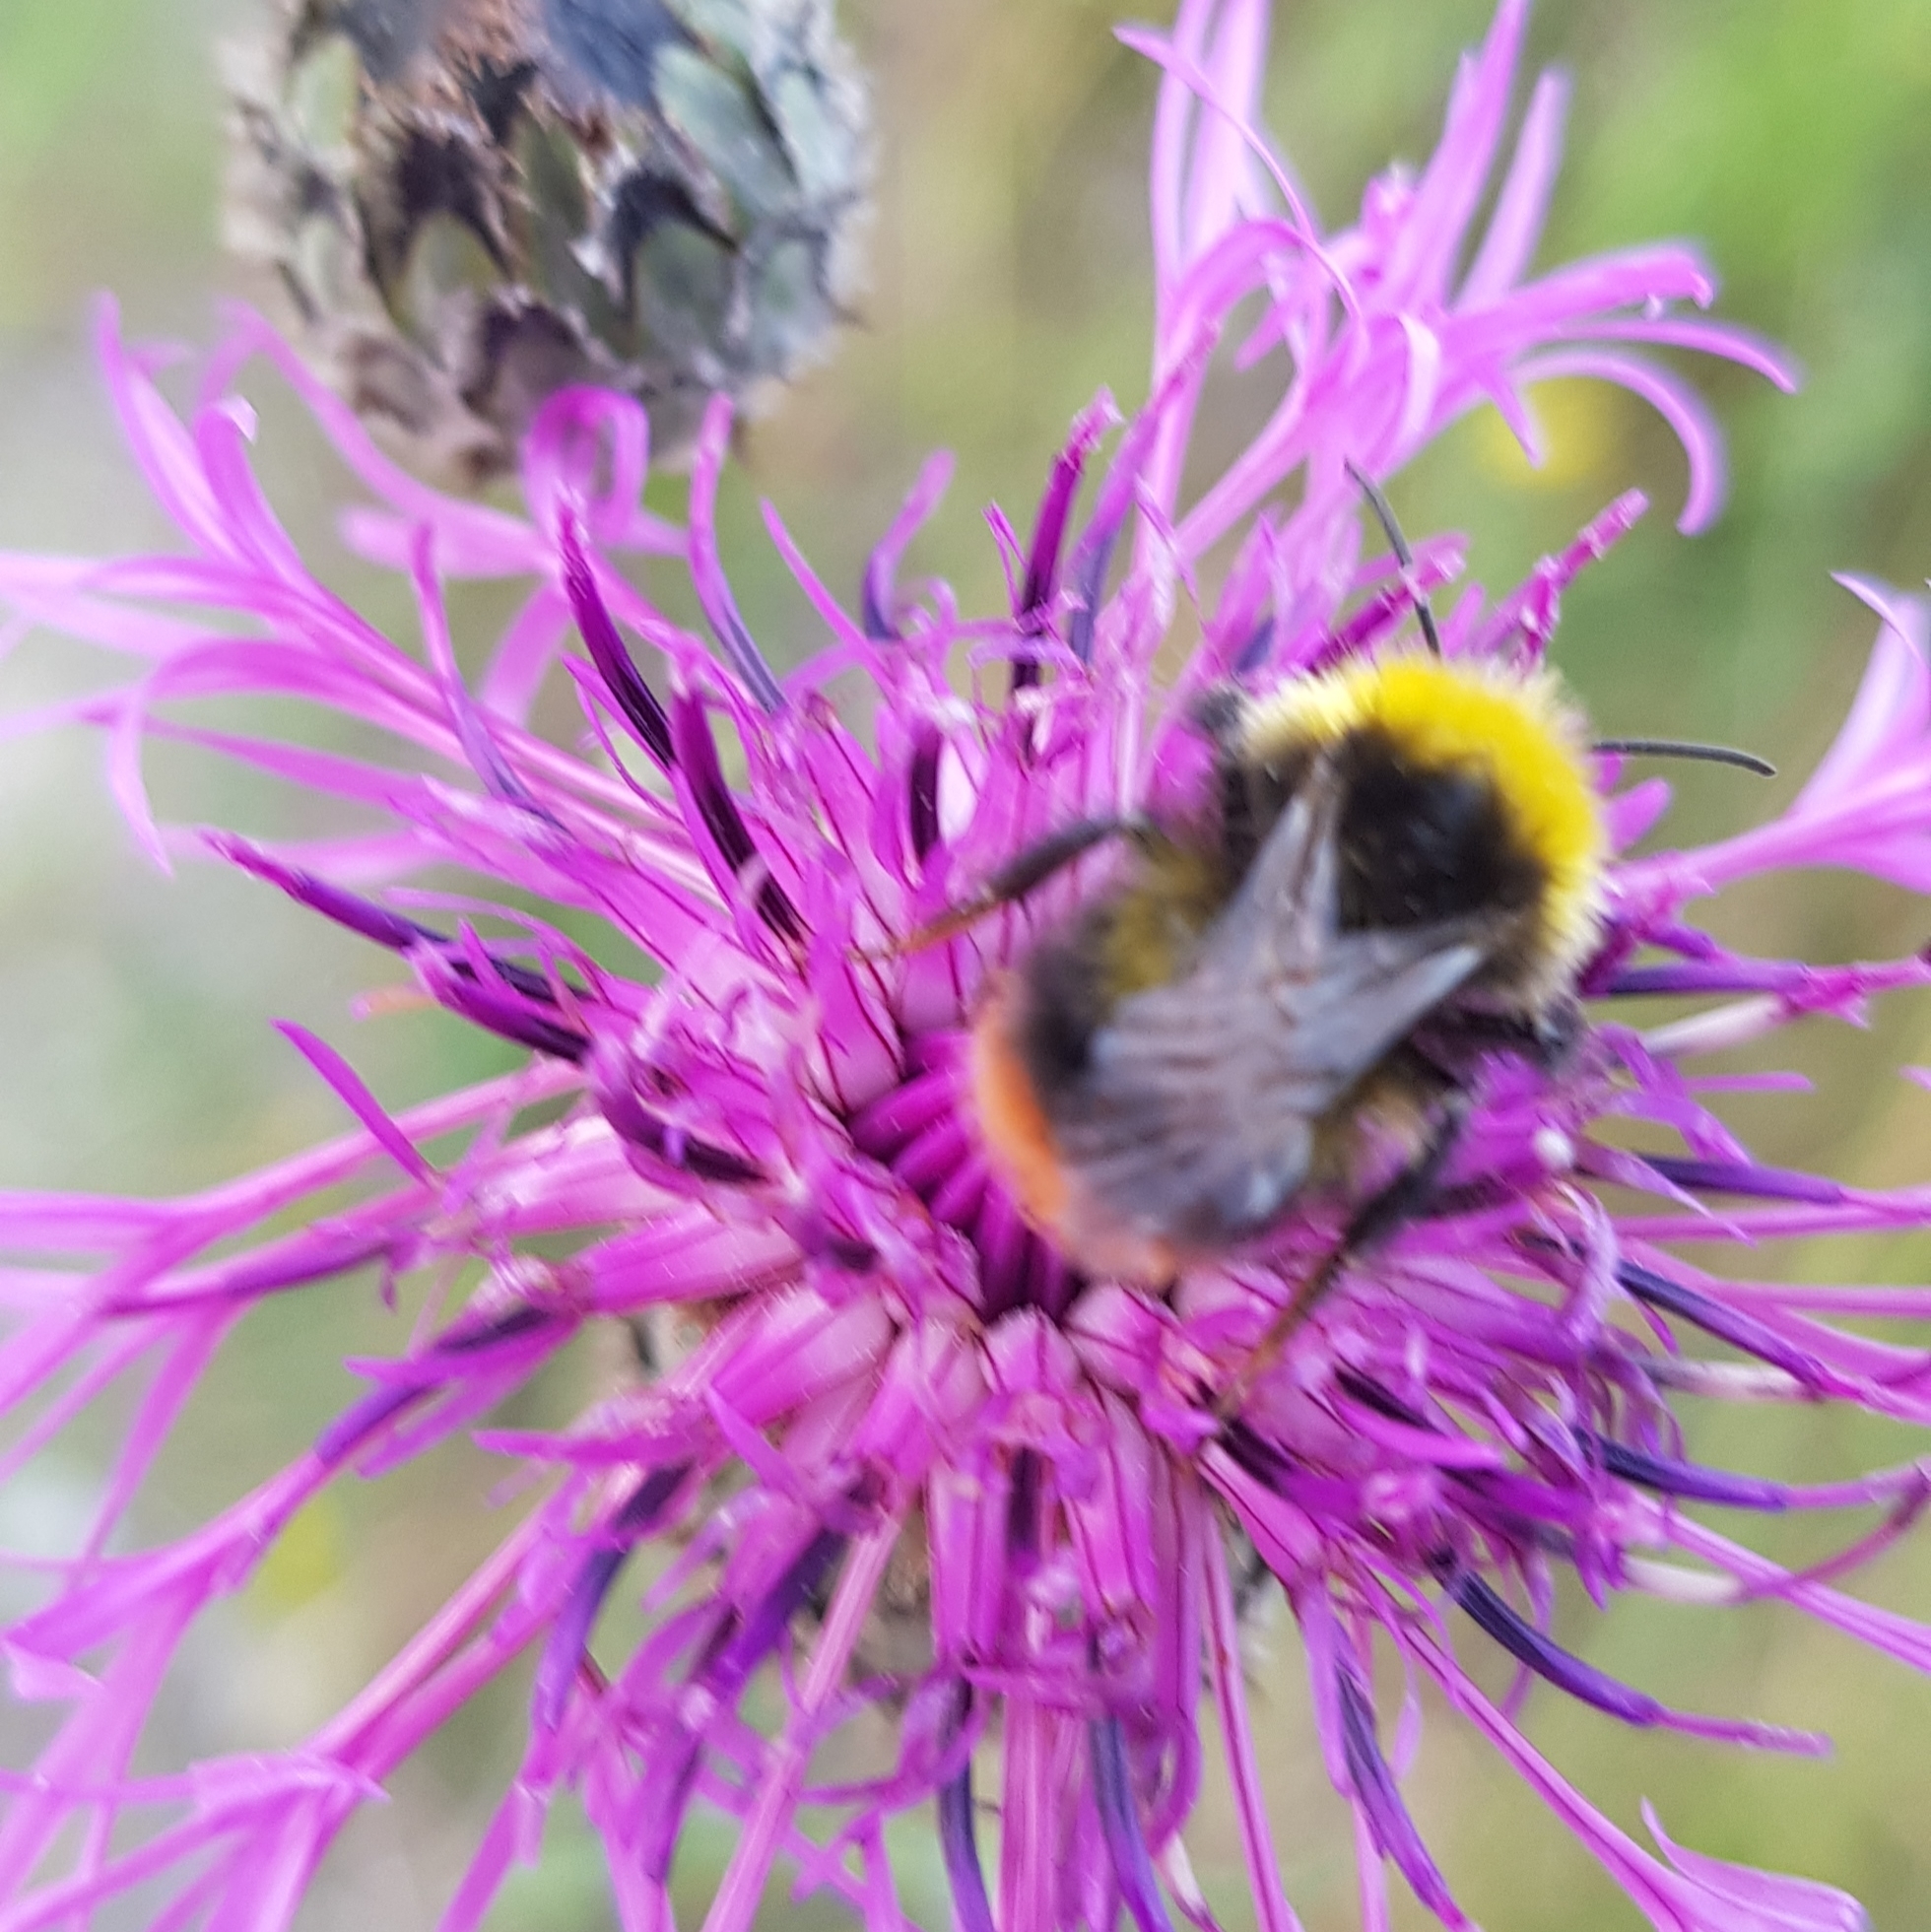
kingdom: Animalia
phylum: Arthropoda
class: Insecta
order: Hymenoptera
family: Apidae
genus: Bombus
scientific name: Bombus pratorum
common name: Early humble-bee
